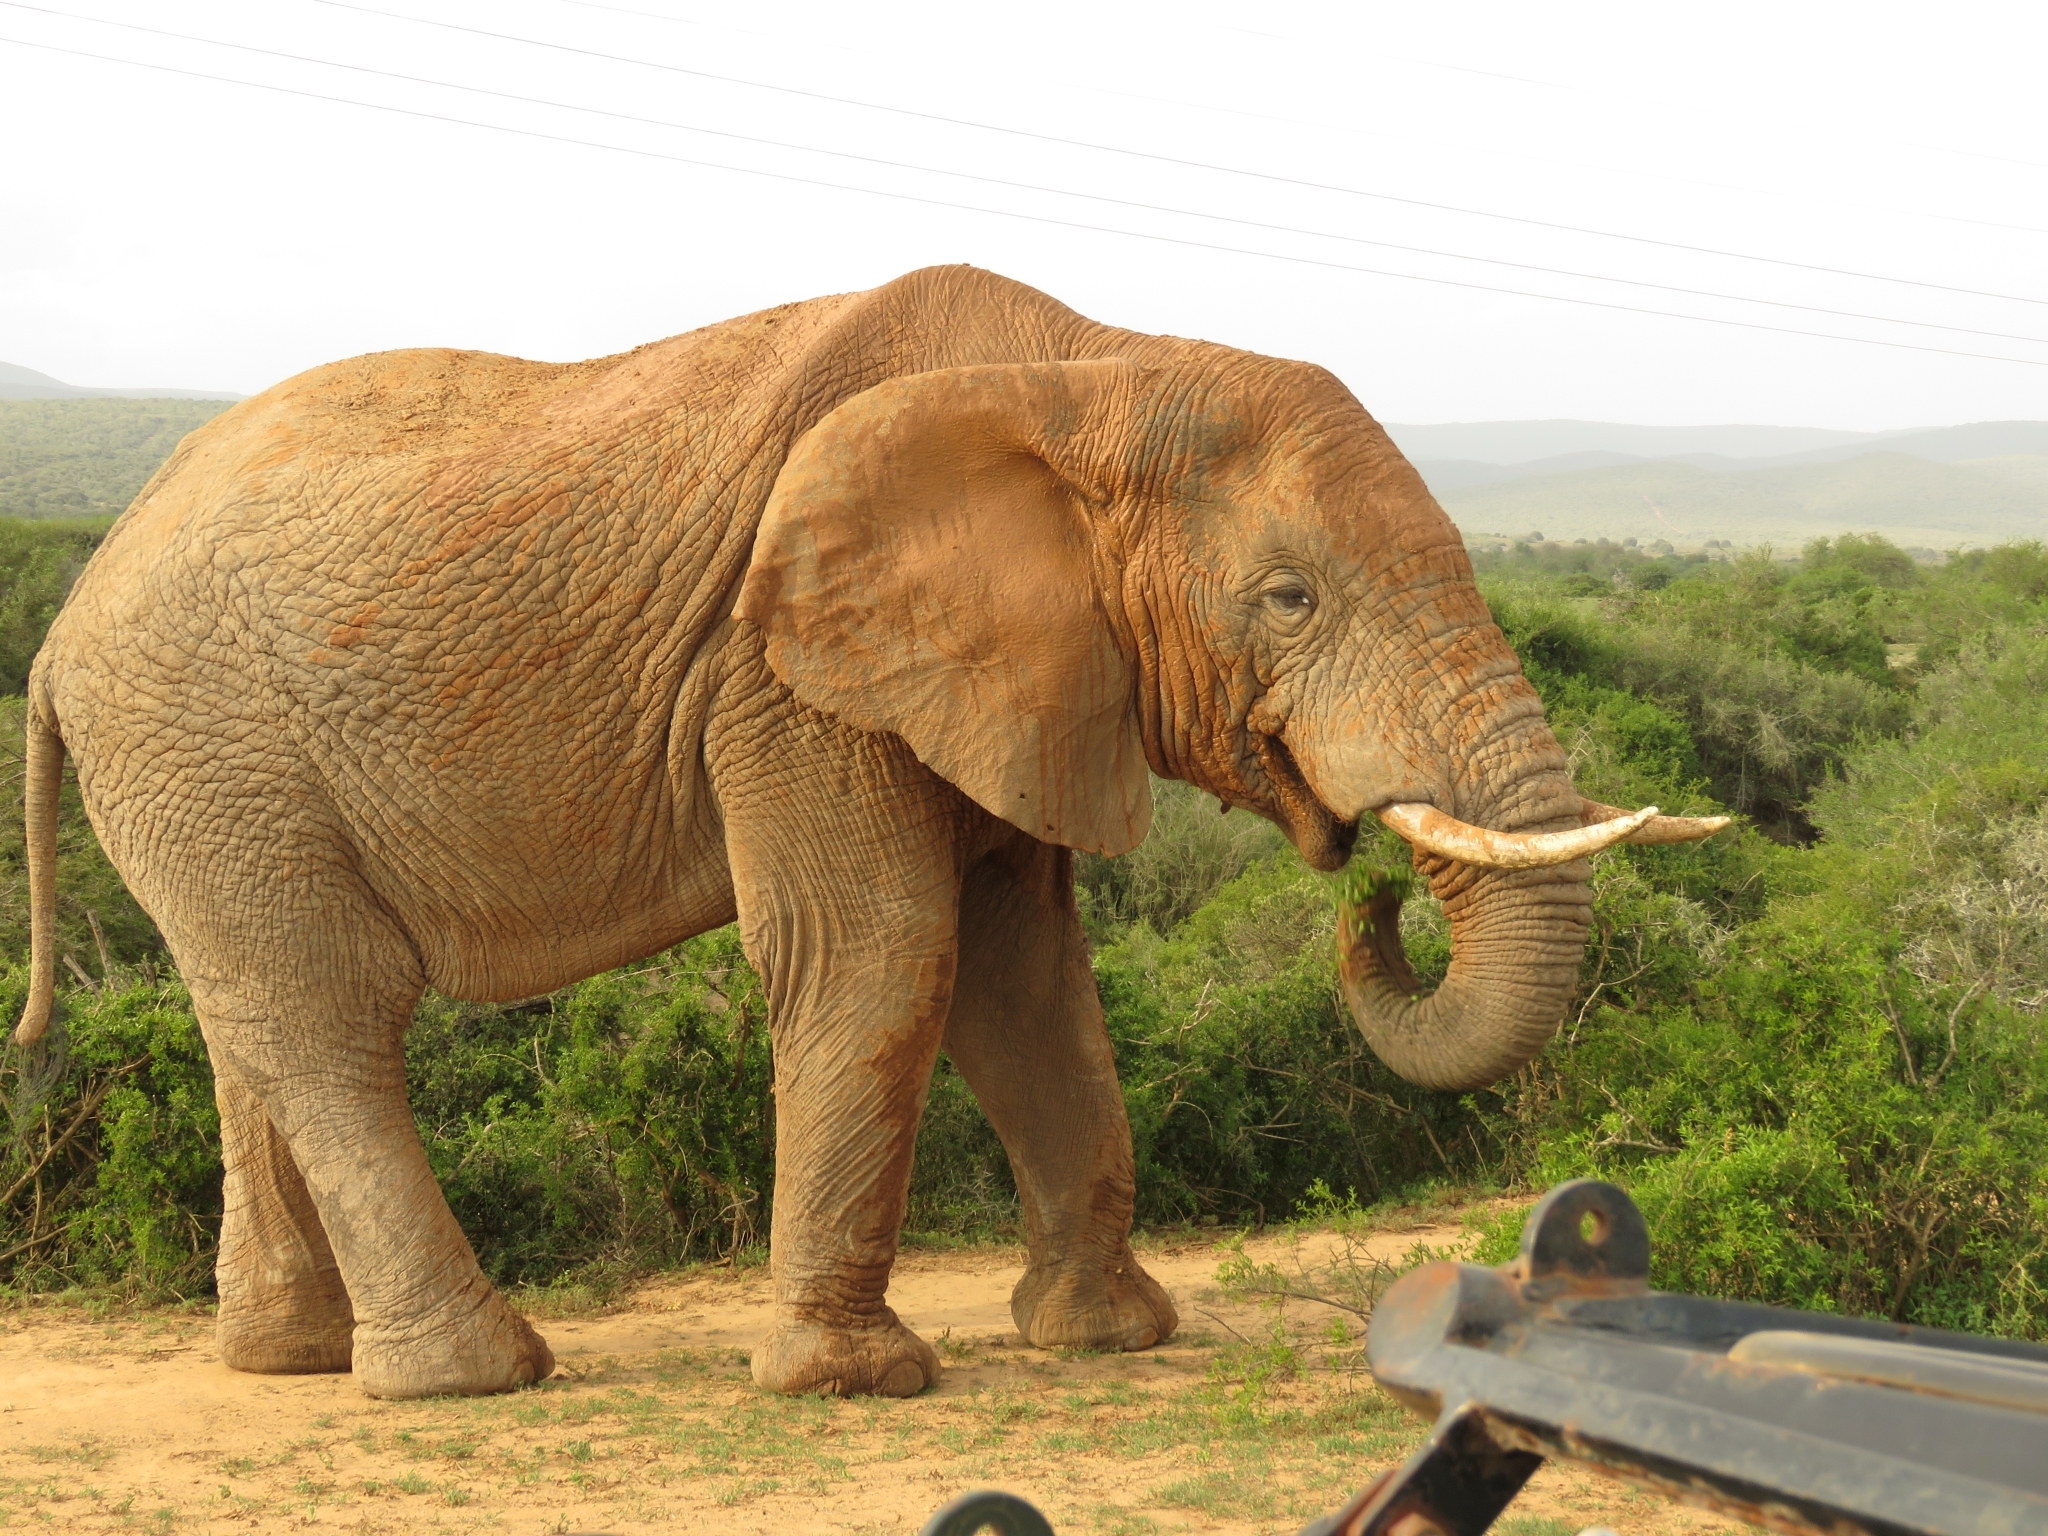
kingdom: Animalia
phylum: Chordata
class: Mammalia
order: Proboscidea
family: Elephantidae
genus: Loxodonta
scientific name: Loxodonta africana
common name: African elephant
